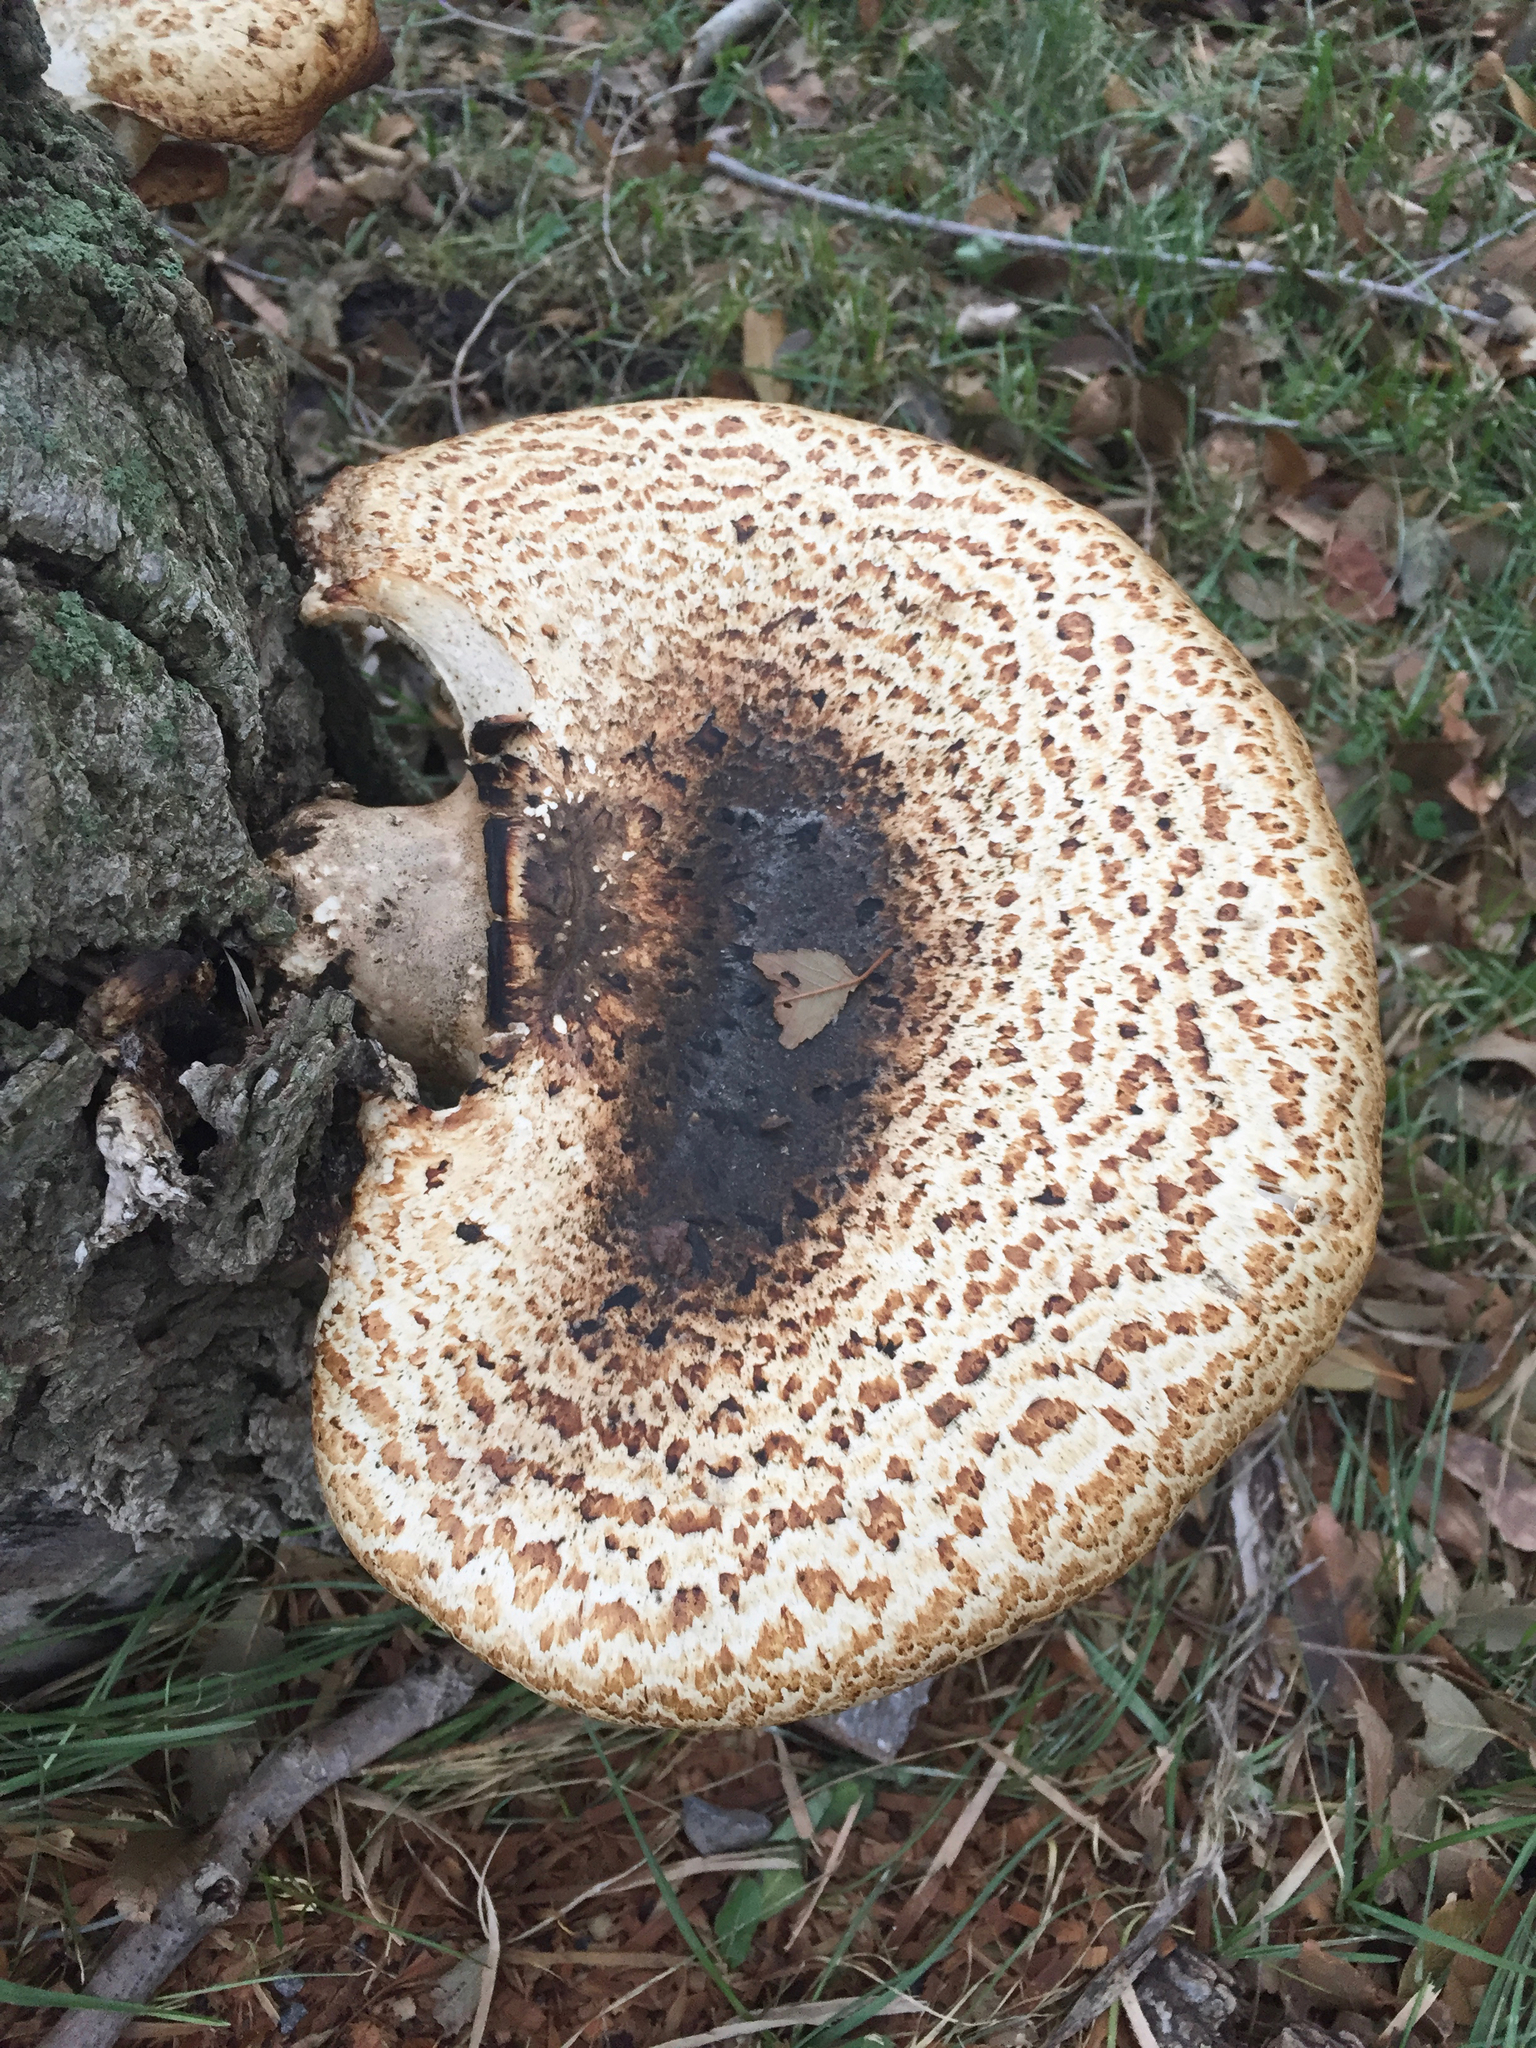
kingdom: Fungi
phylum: Basidiomycota
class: Agaricomycetes
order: Polyporales
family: Polyporaceae
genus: Cerioporus
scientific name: Cerioporus squamosus
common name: Dryad's saddle
